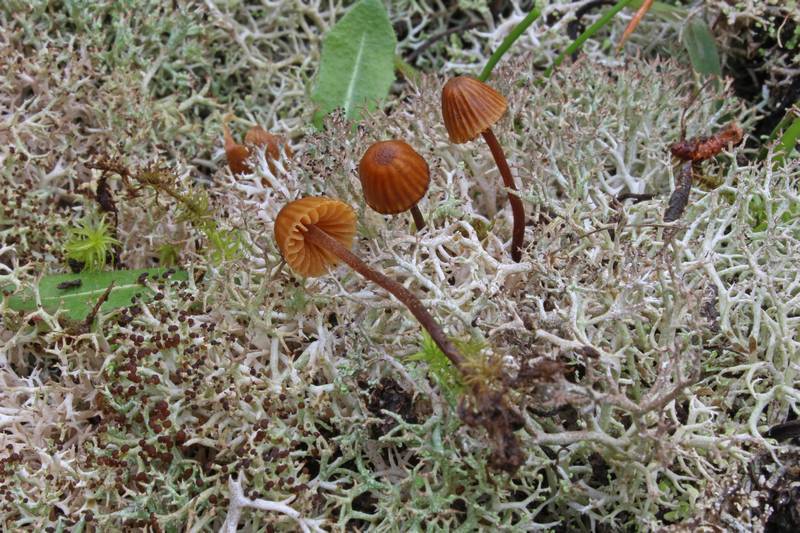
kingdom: Fungi
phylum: Basidiomycota
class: Agaricomycetes
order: Agaricales
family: Hymenogastraceae
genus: Galerina
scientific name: Galerina vittiformis
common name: Hairy leg bell
